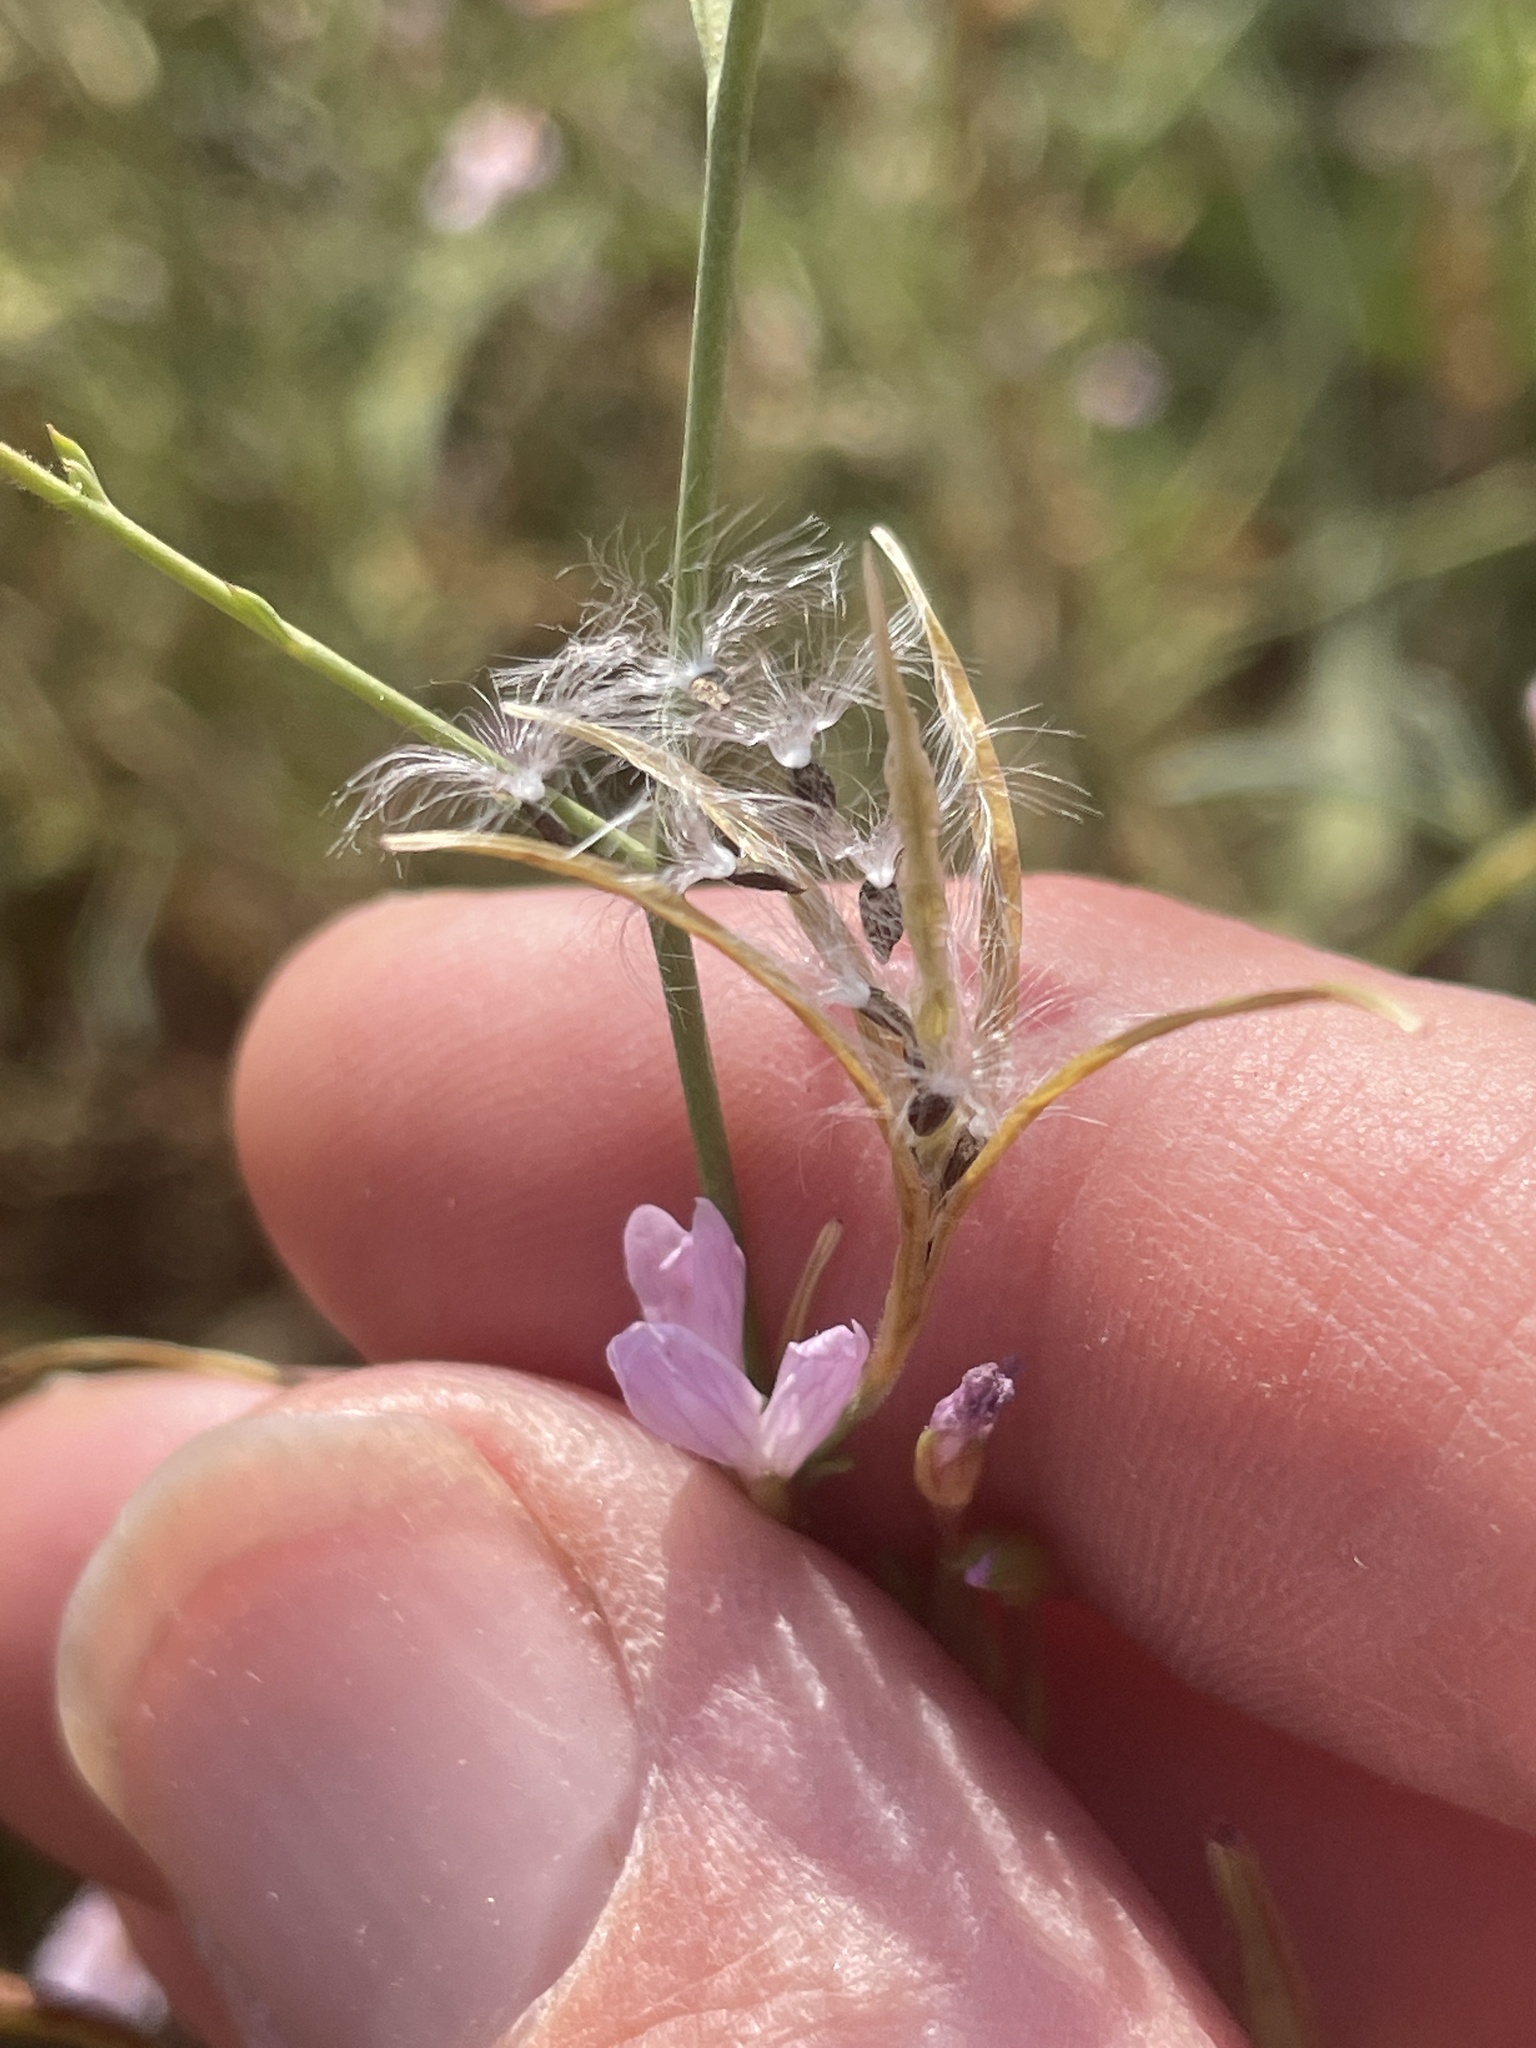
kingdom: Plantae
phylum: Tracheophyta
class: Magnoliopsida
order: Myrtales
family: Onagraceae
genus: Epilobium
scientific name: Epilobium brachycarpum
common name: Annual willowherb
